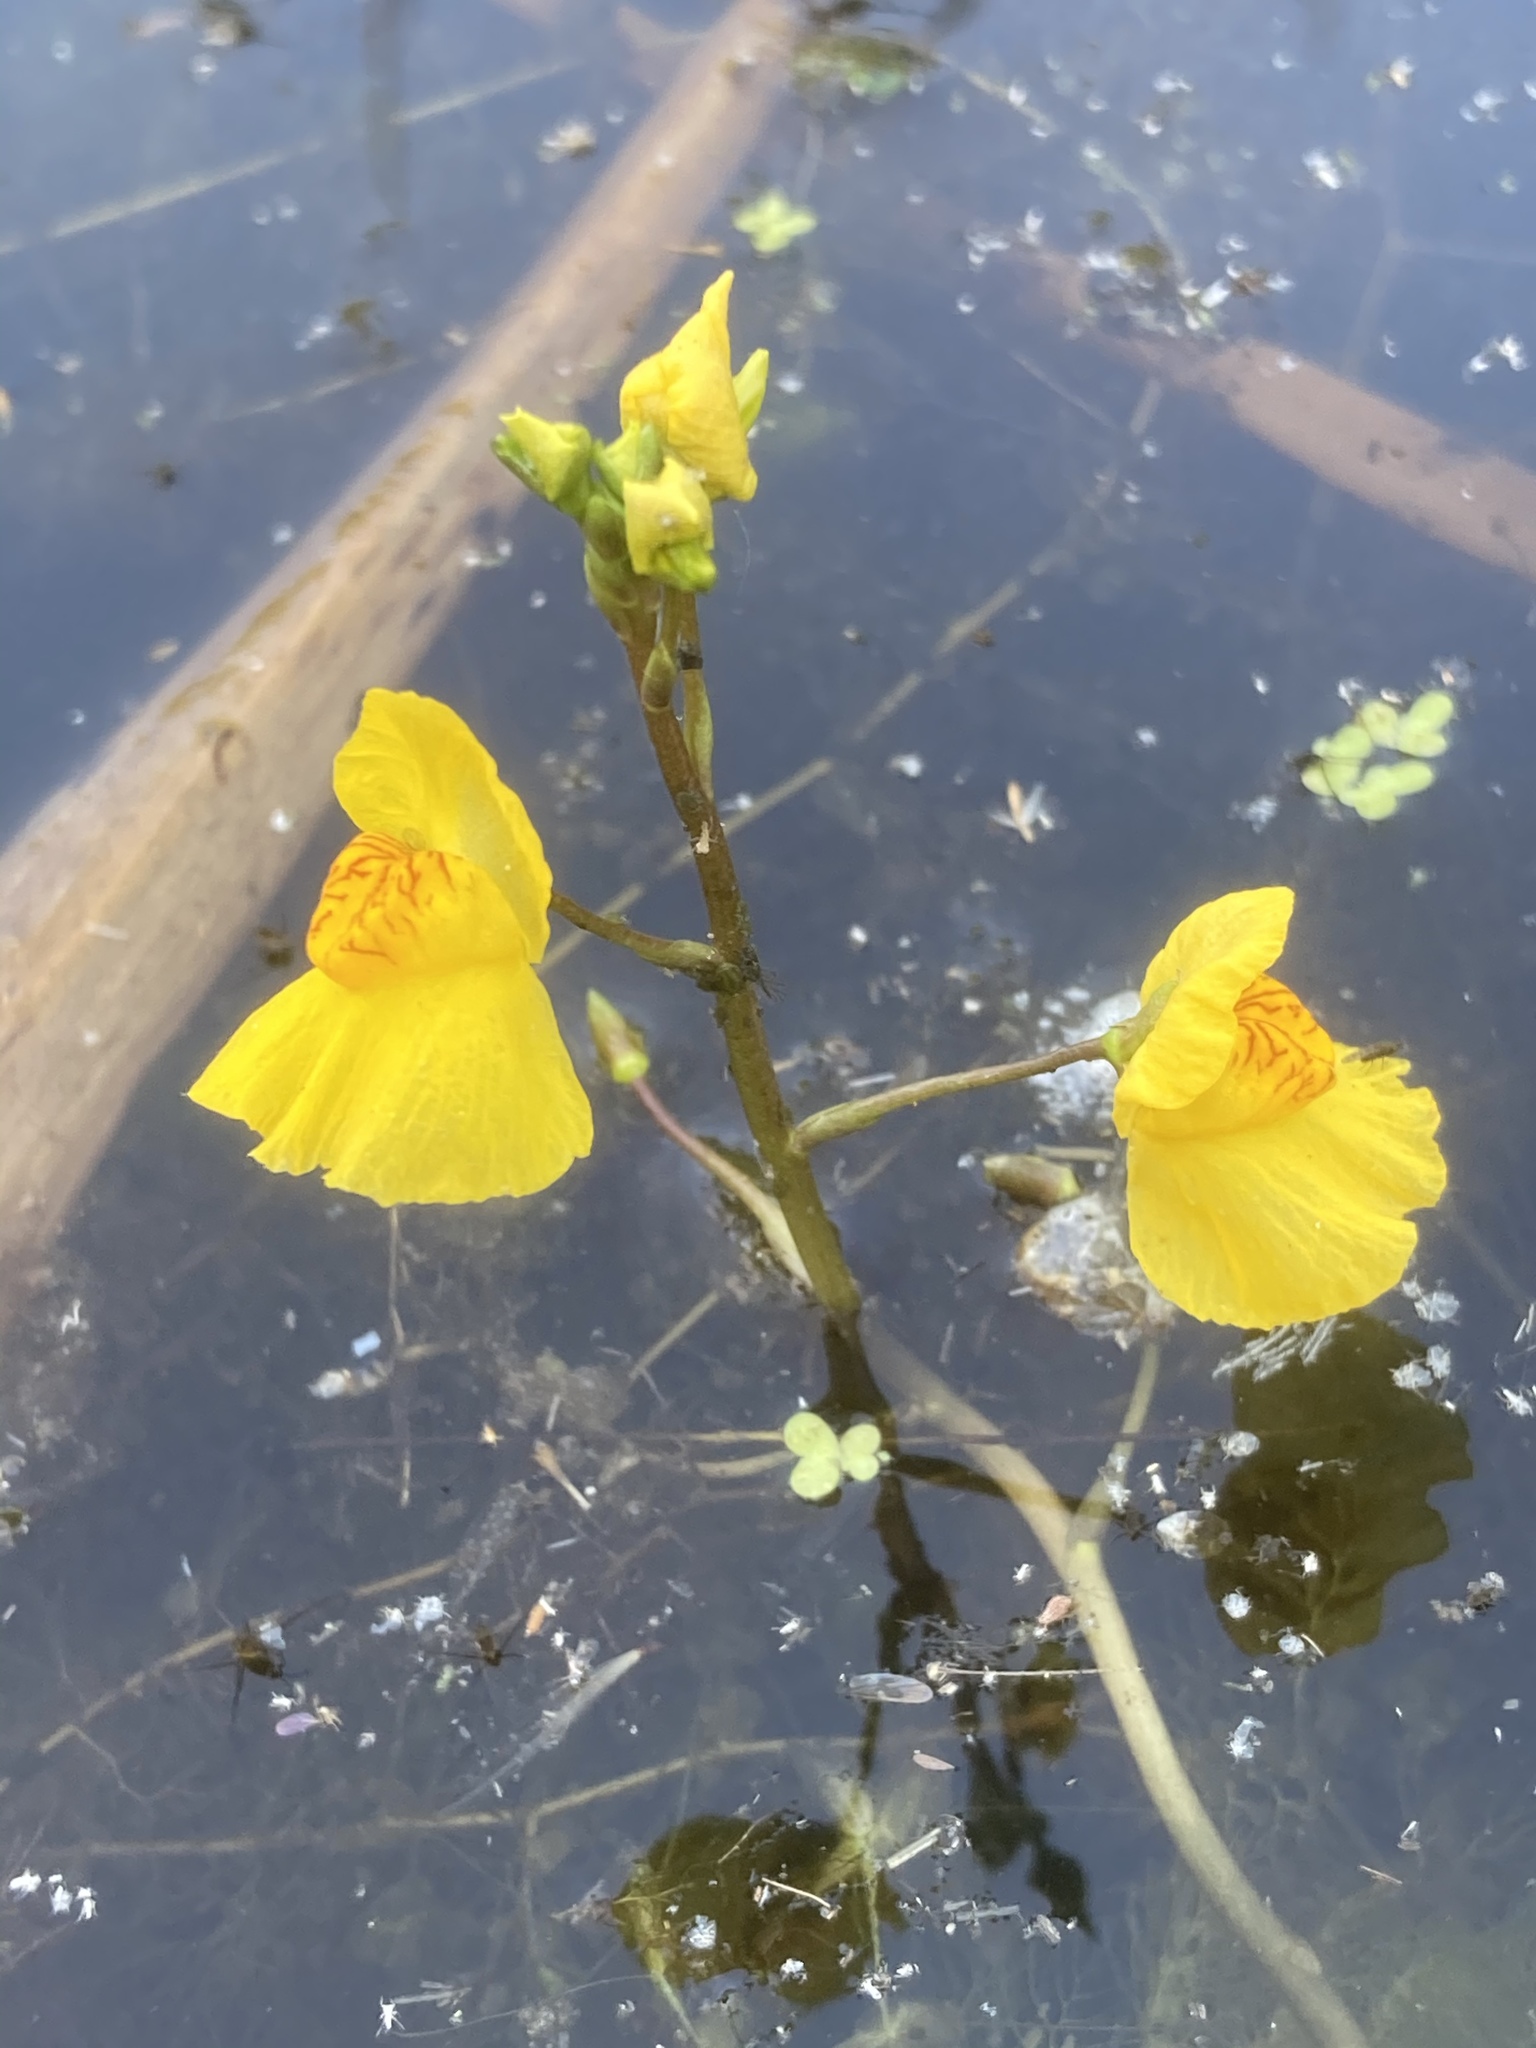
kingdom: Plantae
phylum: Tracheophyta
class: Magnoliopsida
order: Lamiales
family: Lentibulariaceae
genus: Utricularia
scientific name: Utricularia australis
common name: Bladderwort
